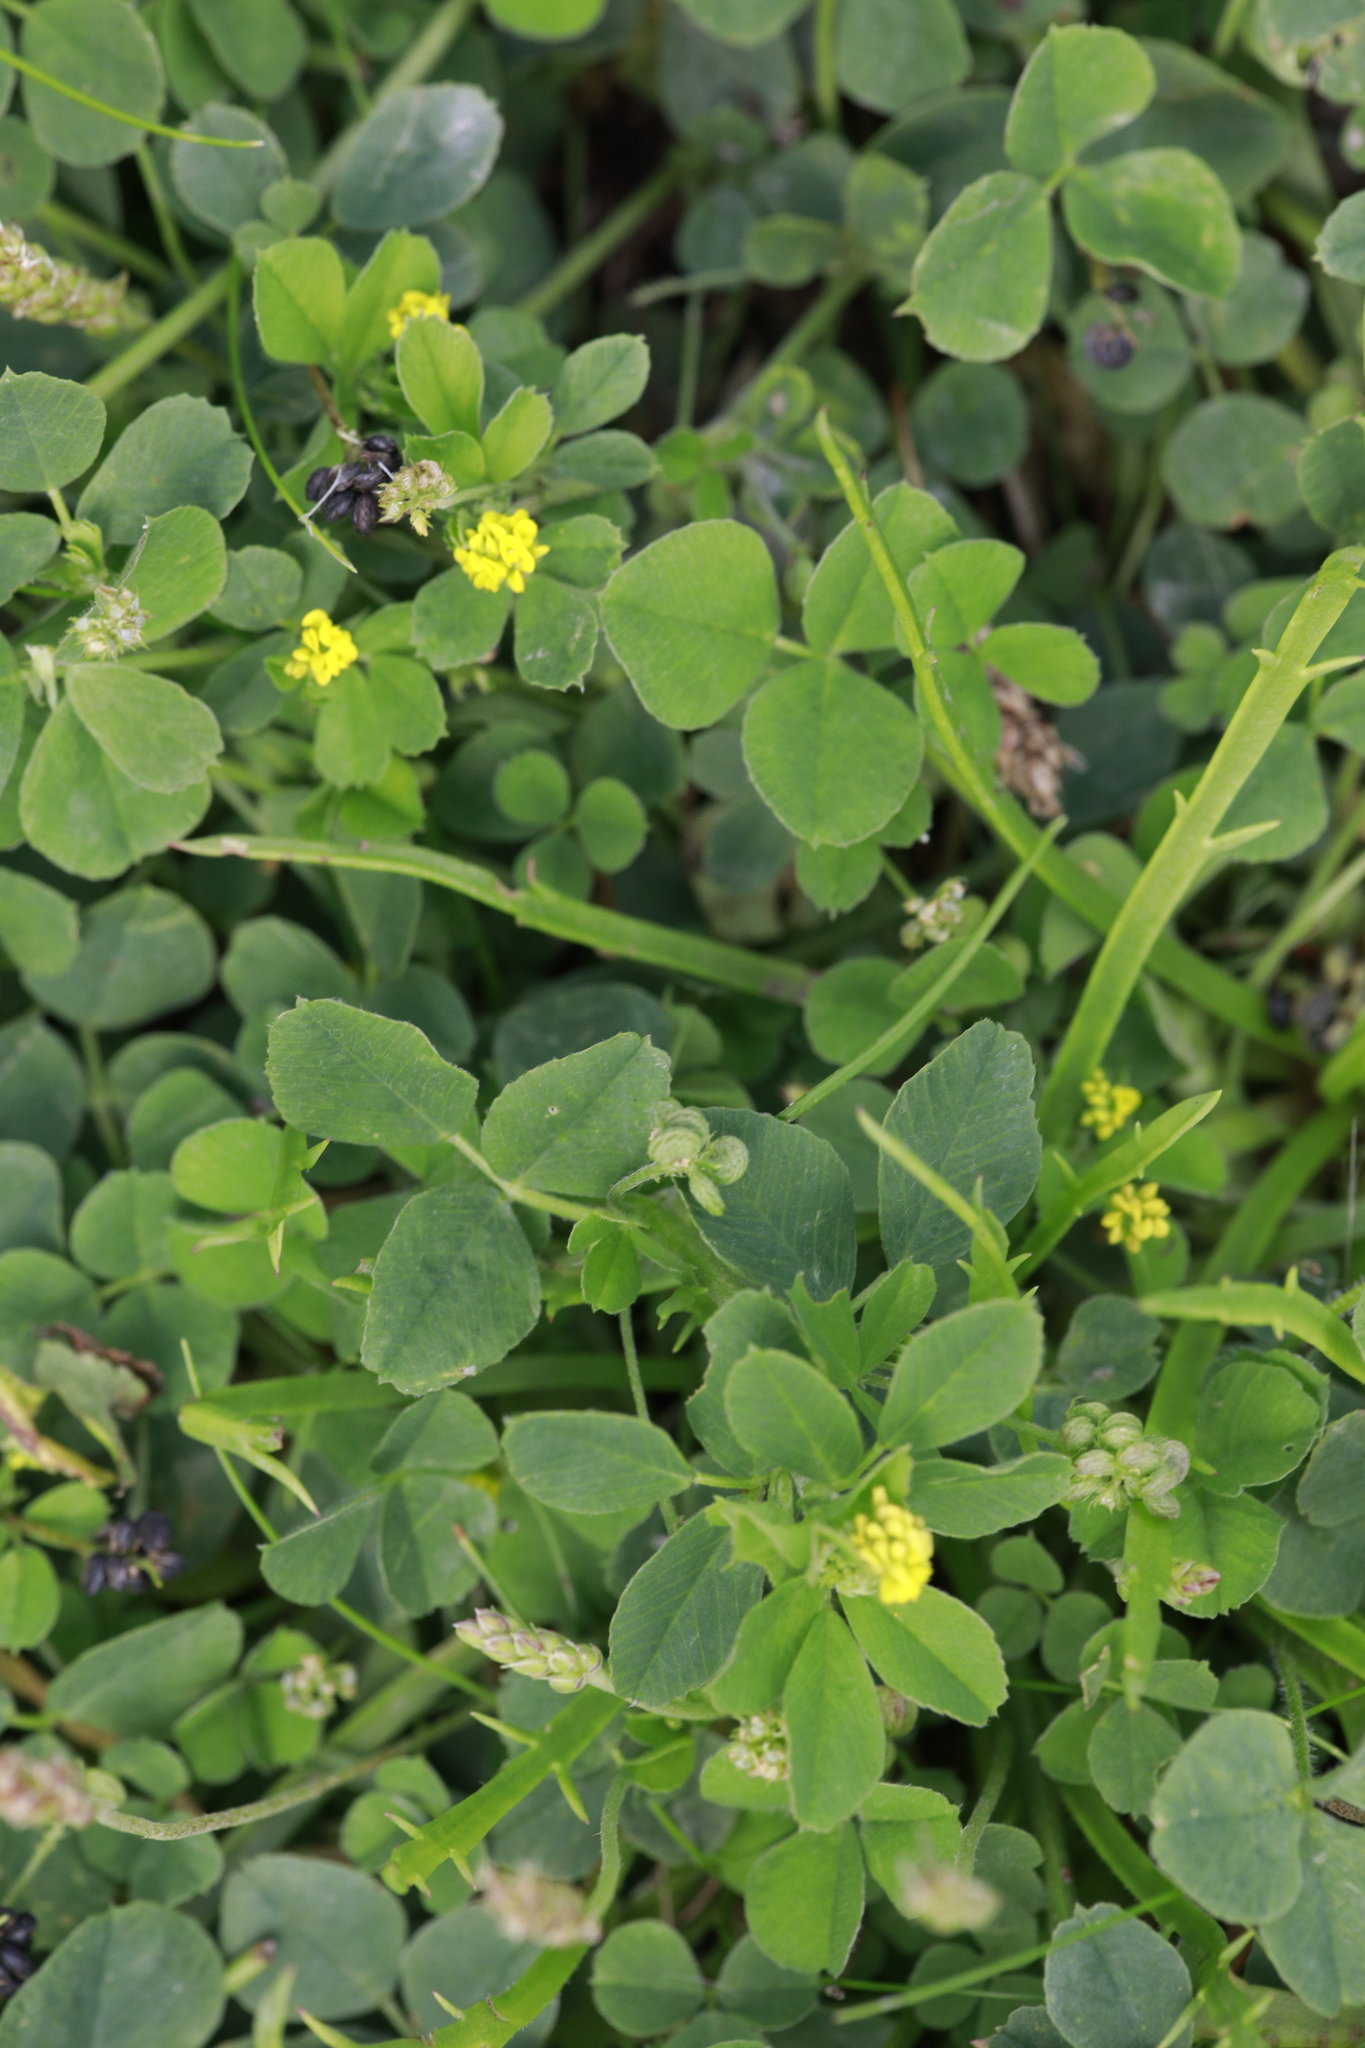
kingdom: Plantae
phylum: Tracheophyta
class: Magnoliopsida
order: Fabales
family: Fabaceae
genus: Medicago
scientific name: Medicago lupulina
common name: Black medick
